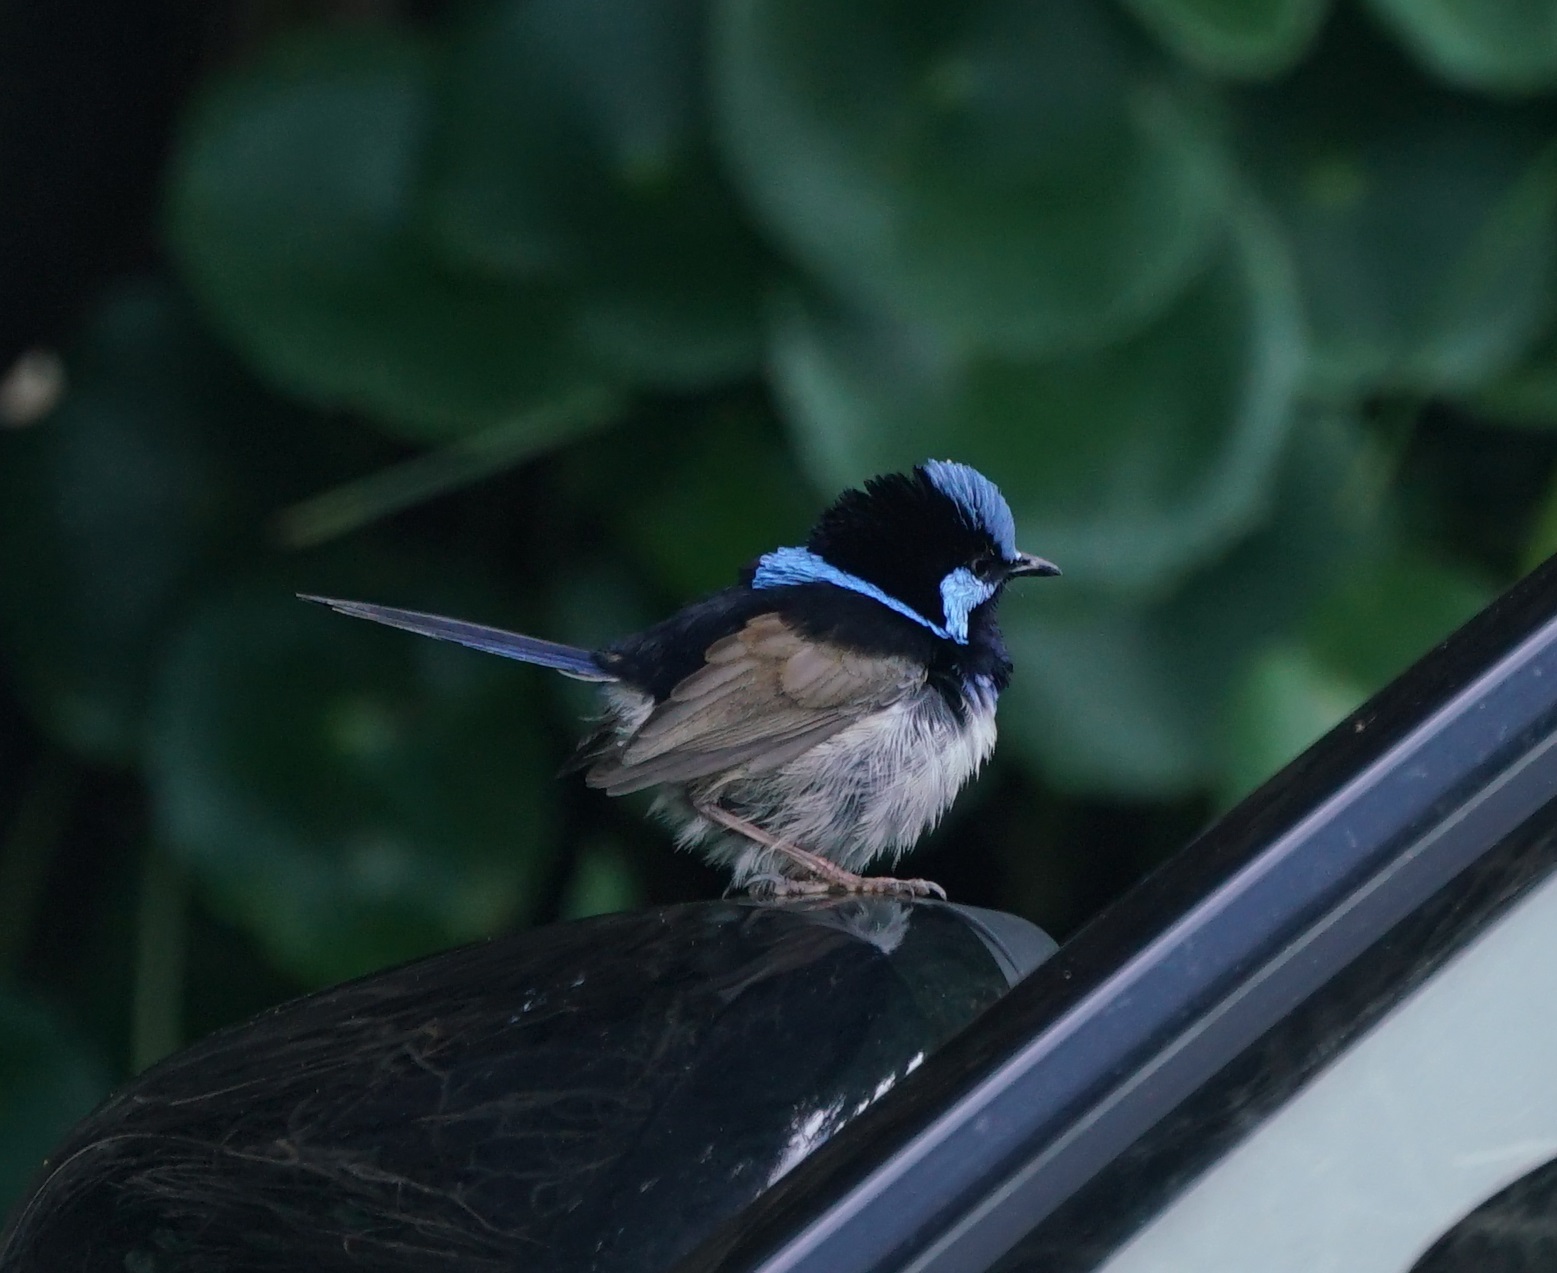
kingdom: Animalia
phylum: Chordata
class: Aves
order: Passeriformes
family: Maluridae
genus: Malurus
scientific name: Malurus cyaneus
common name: Superb fairywren
